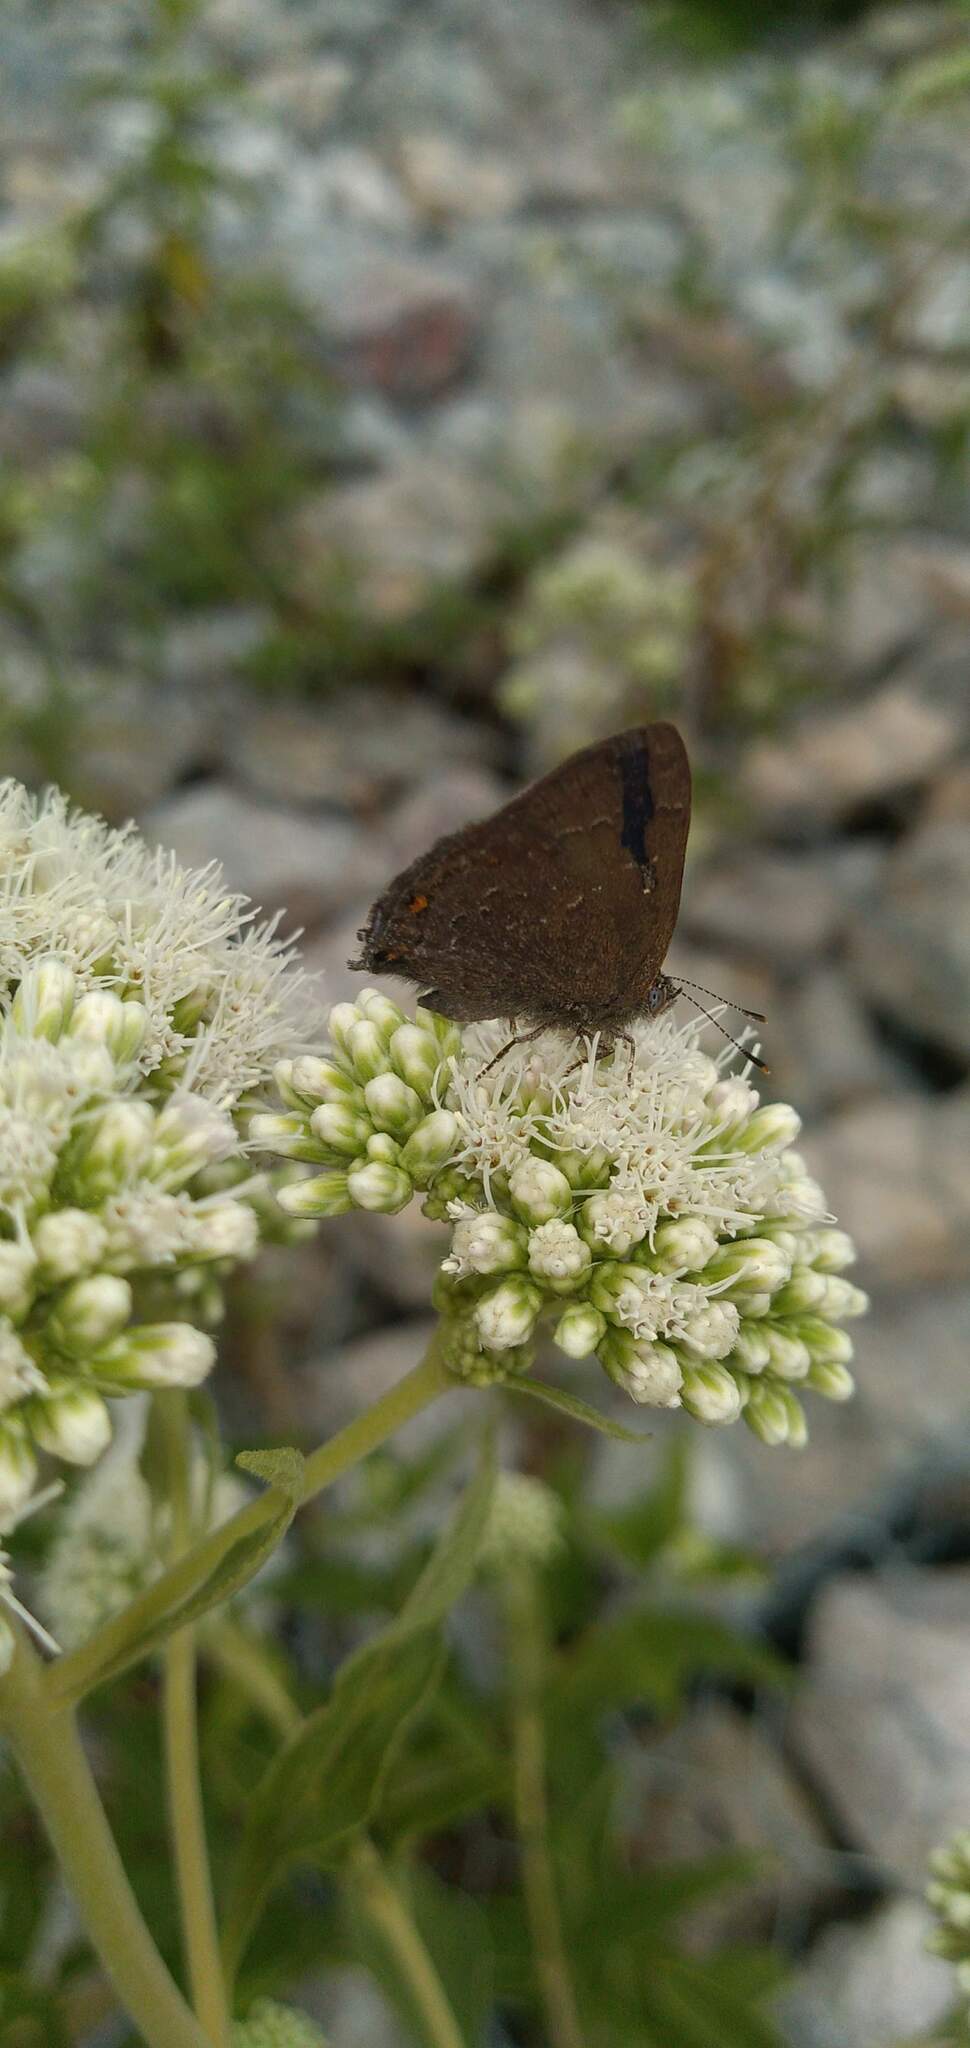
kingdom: Animalia
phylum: Arthropoda
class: Insecta
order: Lepidoptera
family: Lycaenidae
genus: Ocaria
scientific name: Ocaria
